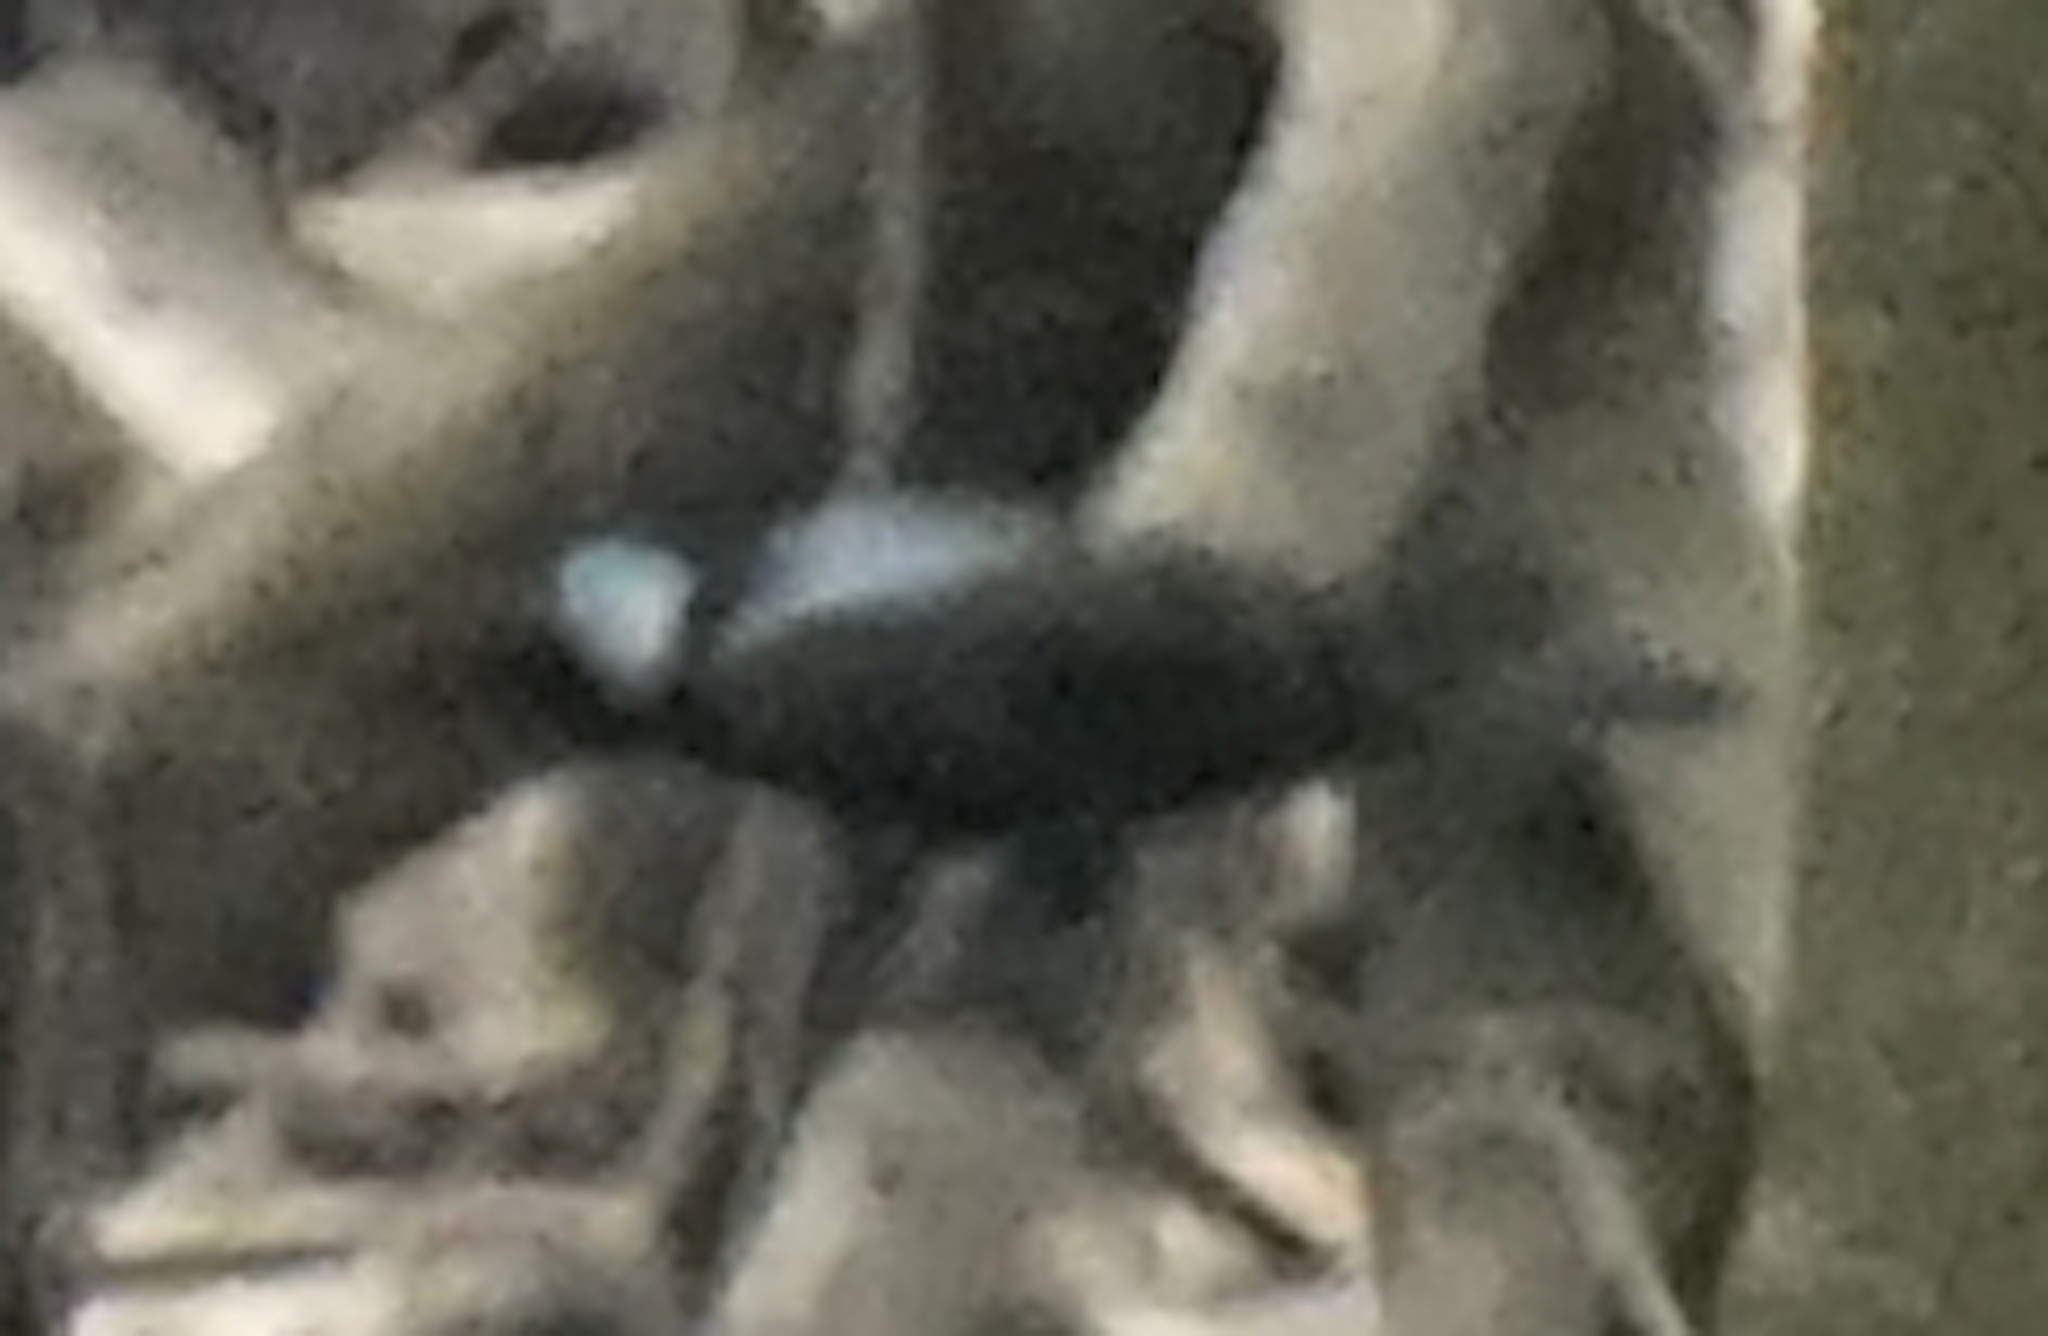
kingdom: Animalia
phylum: Chordata
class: Aves
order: Passeriformes
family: Sturnidae
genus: Aplonis
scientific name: Aplonis panayensis
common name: Asian glossy starling
